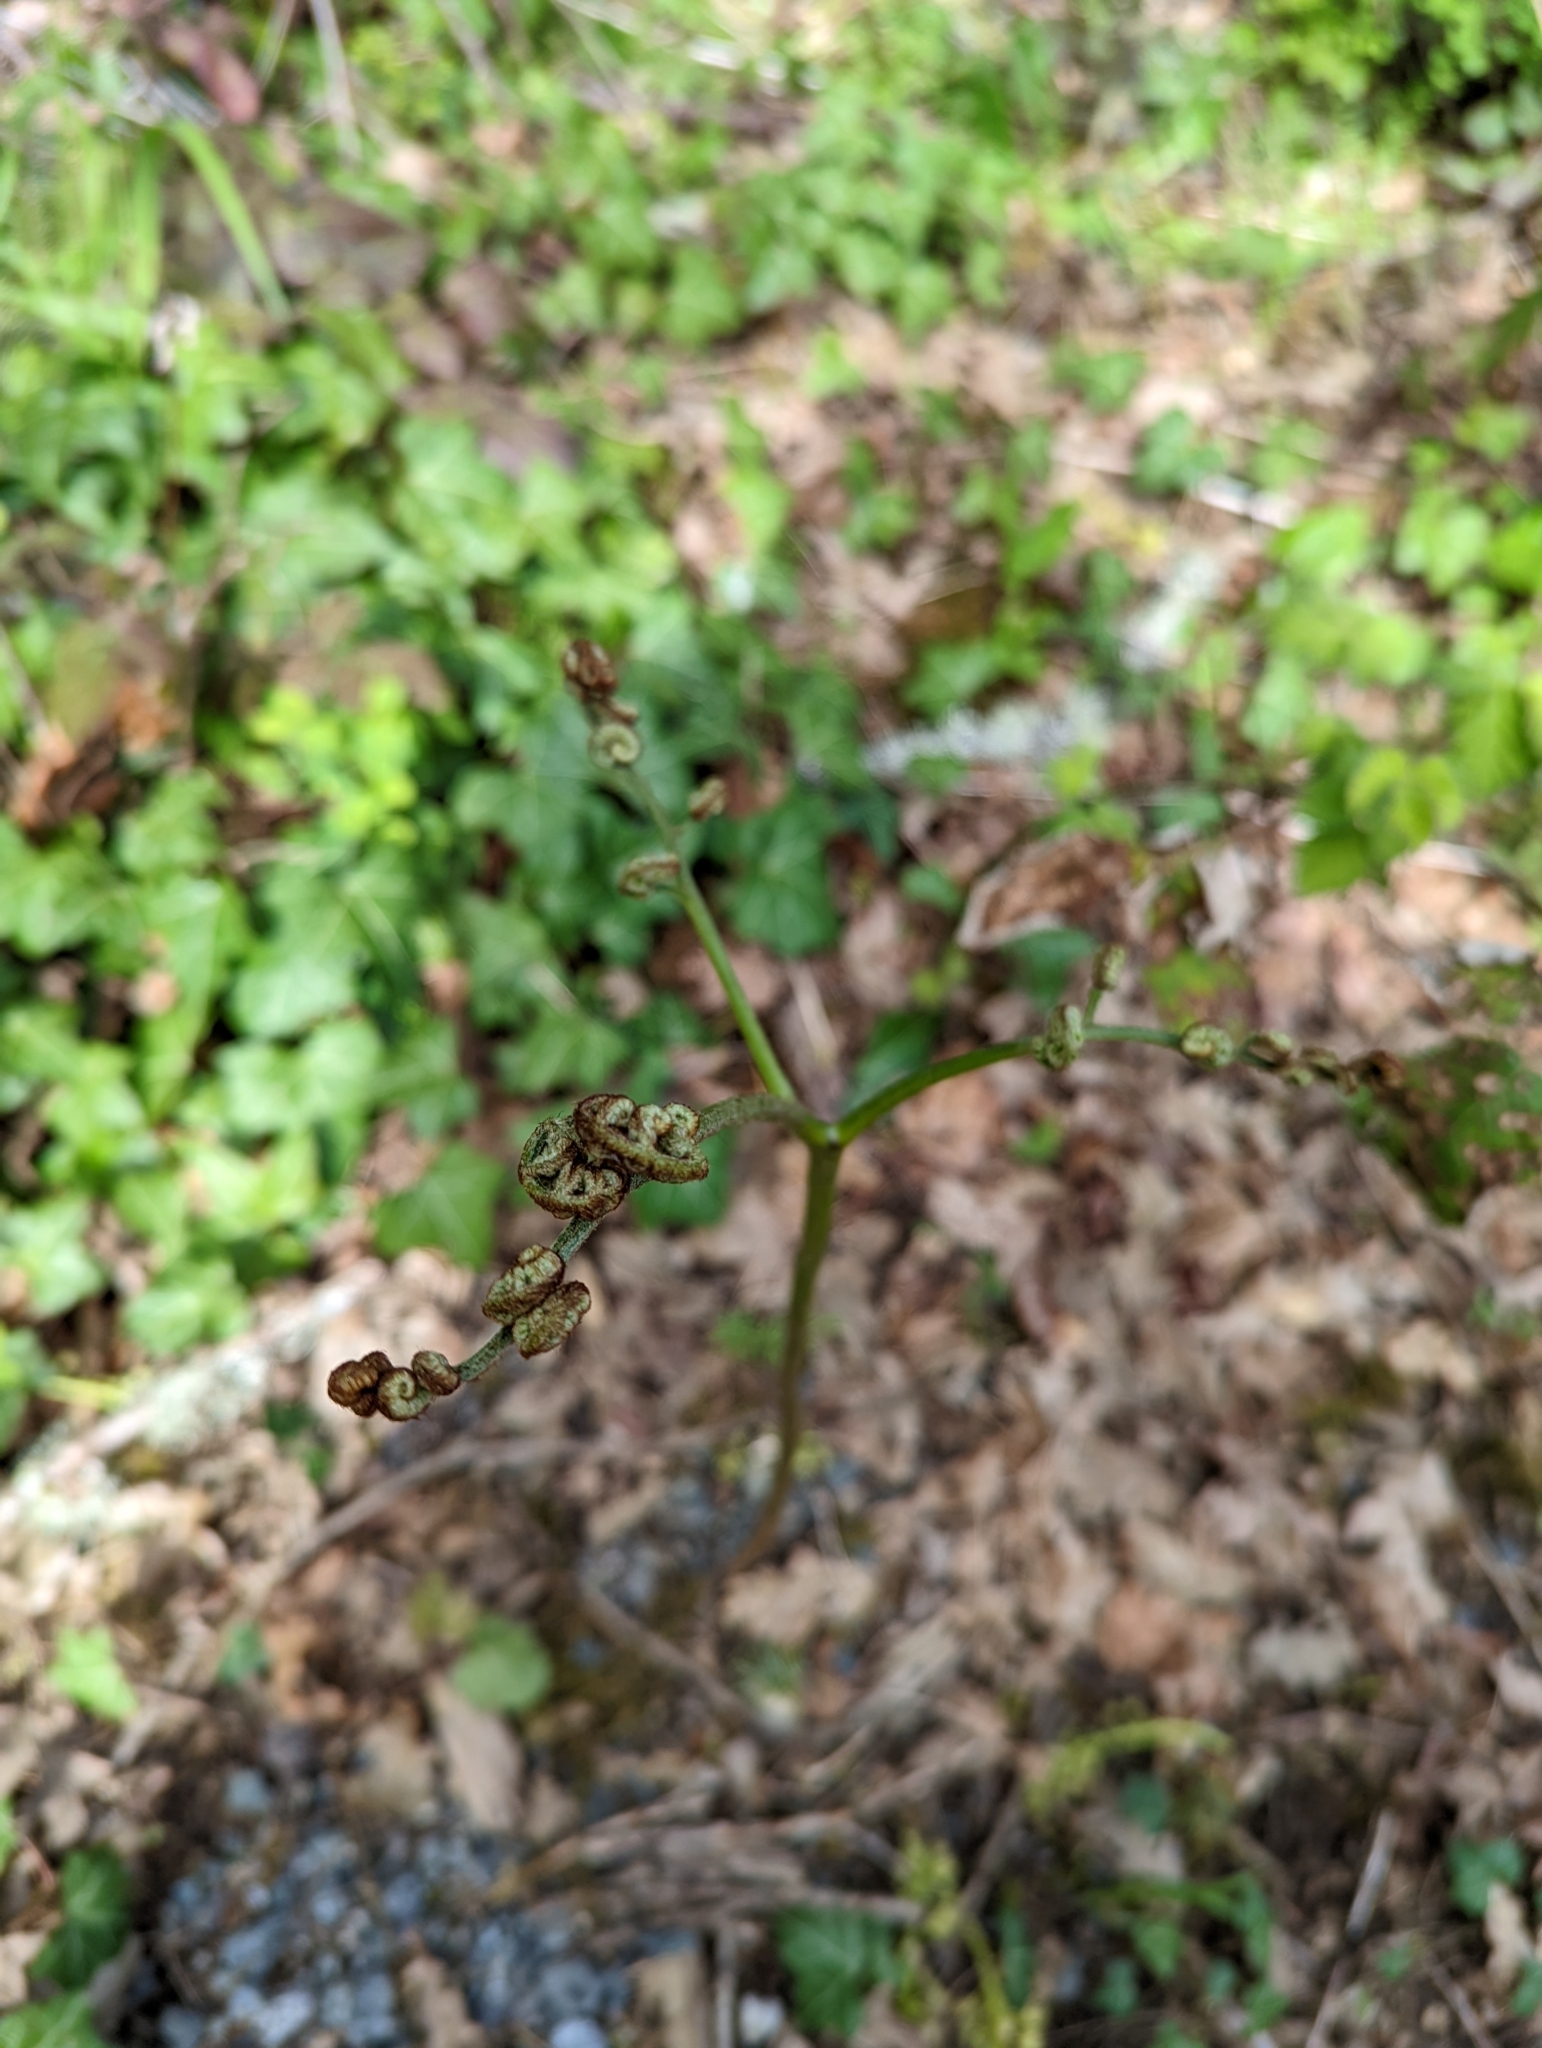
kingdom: Plantae
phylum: Tracheophyta
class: Polypodiopsida
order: Polypodiales
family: Dennstaedtiaceae
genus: Pteridium
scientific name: Pteridium aquilinum
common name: Bracken
